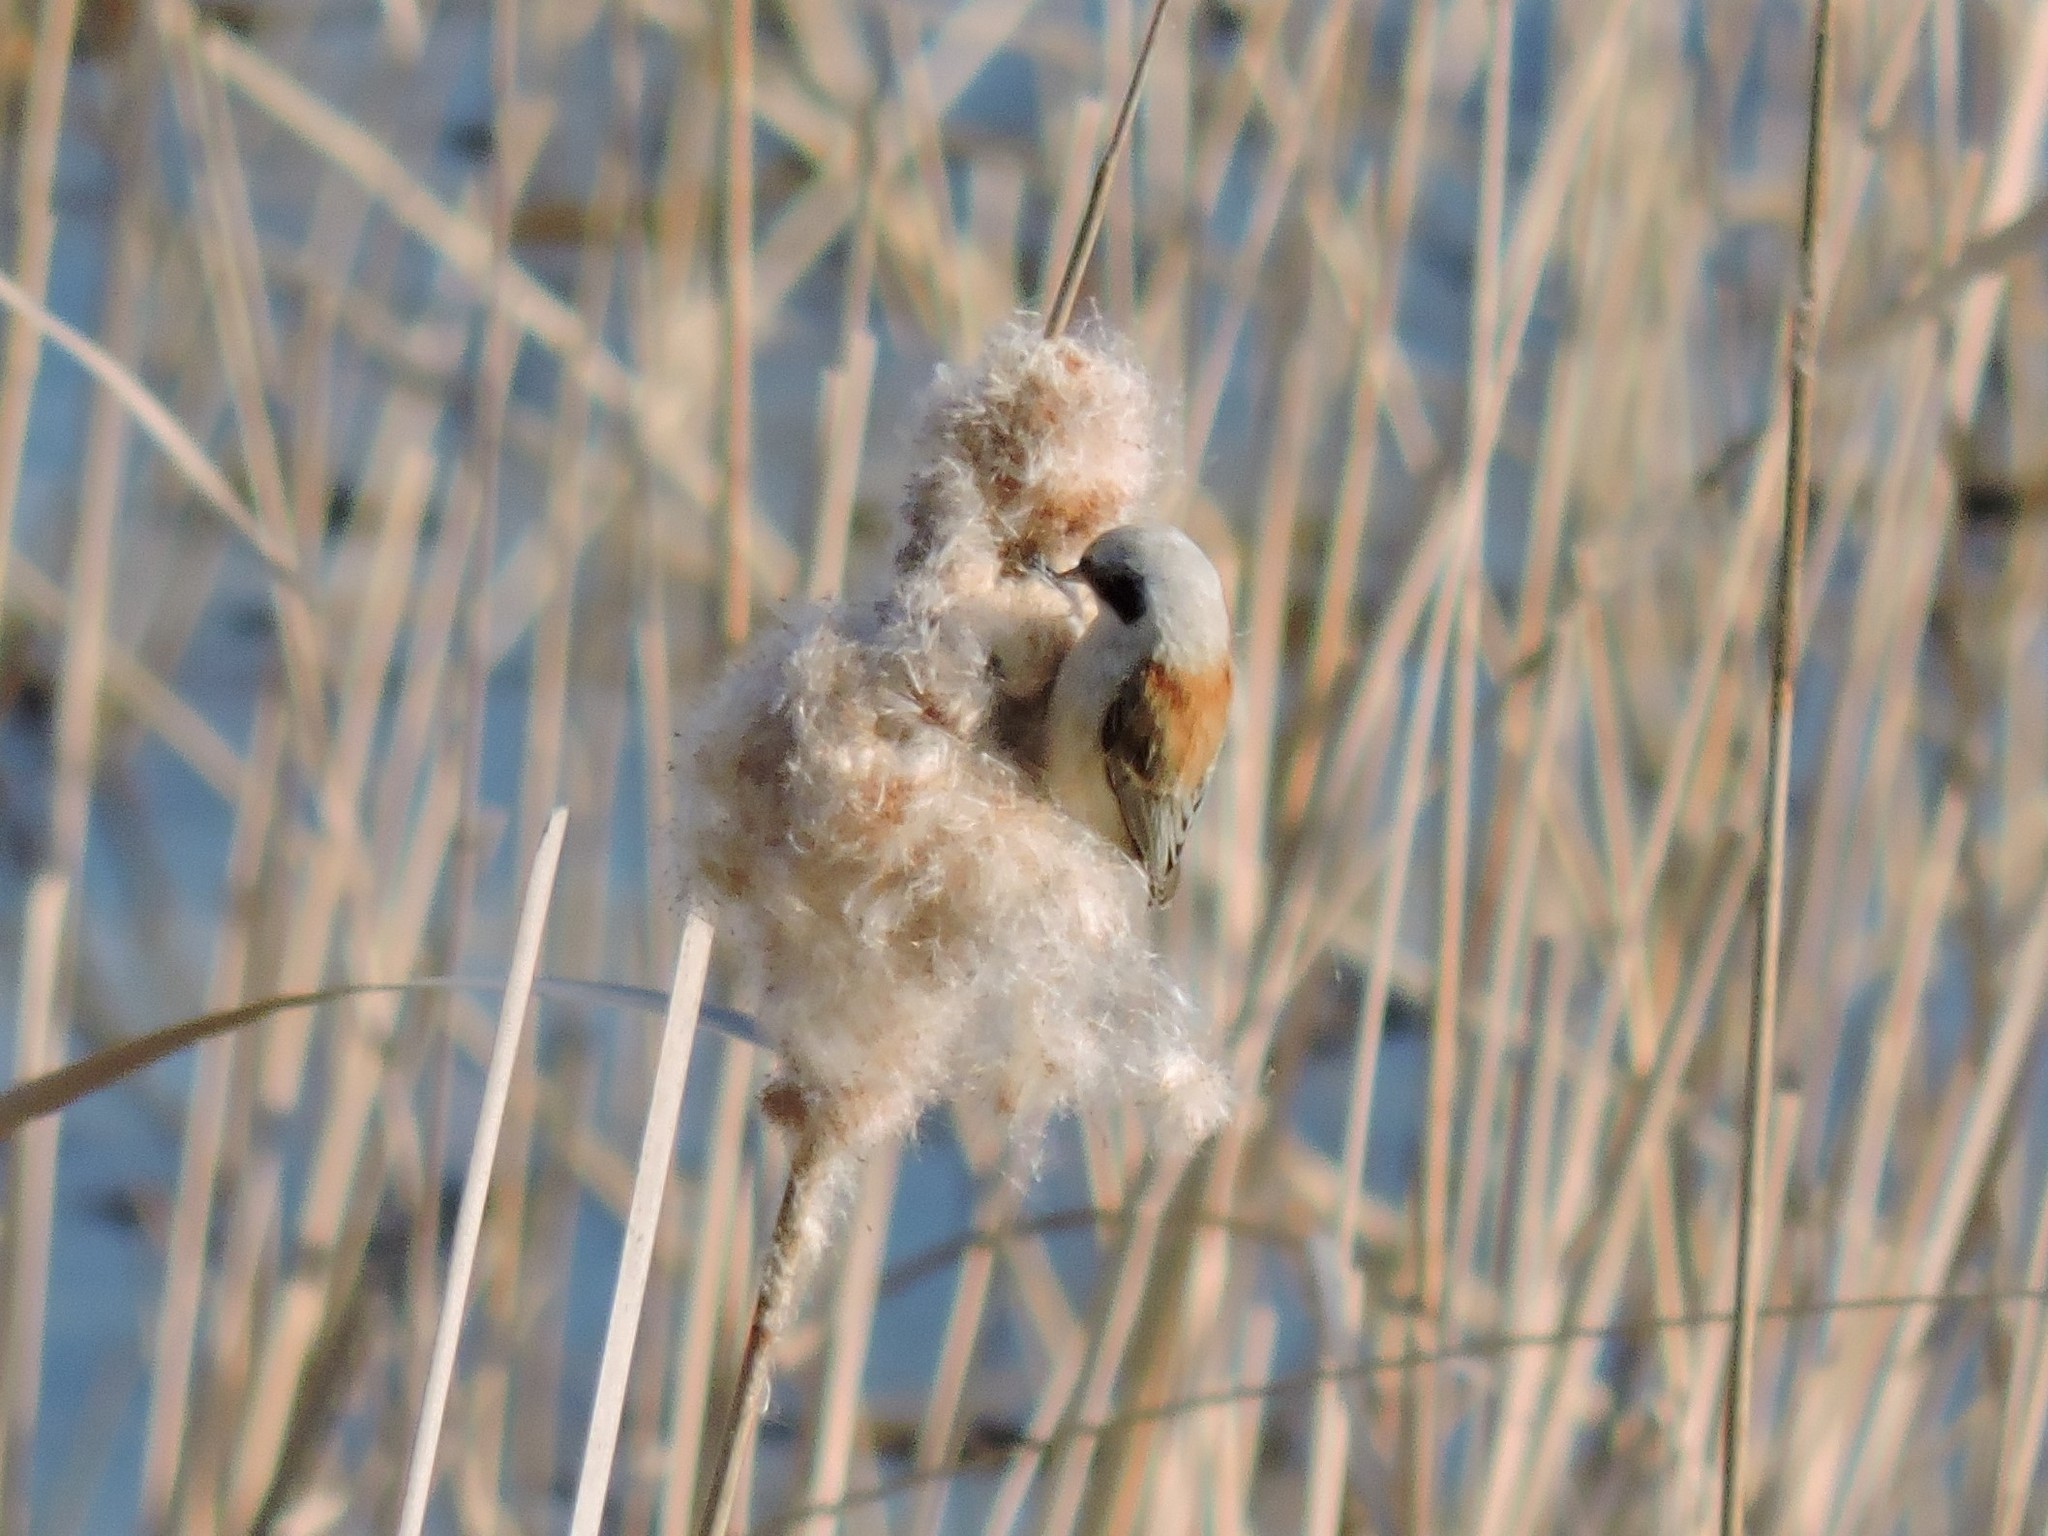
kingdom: Animalia
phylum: Chordata
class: Aves
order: Passeriformes
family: Remizidae
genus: Remiz
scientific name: Remiz pendulinus
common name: Eurasian penduline tit
